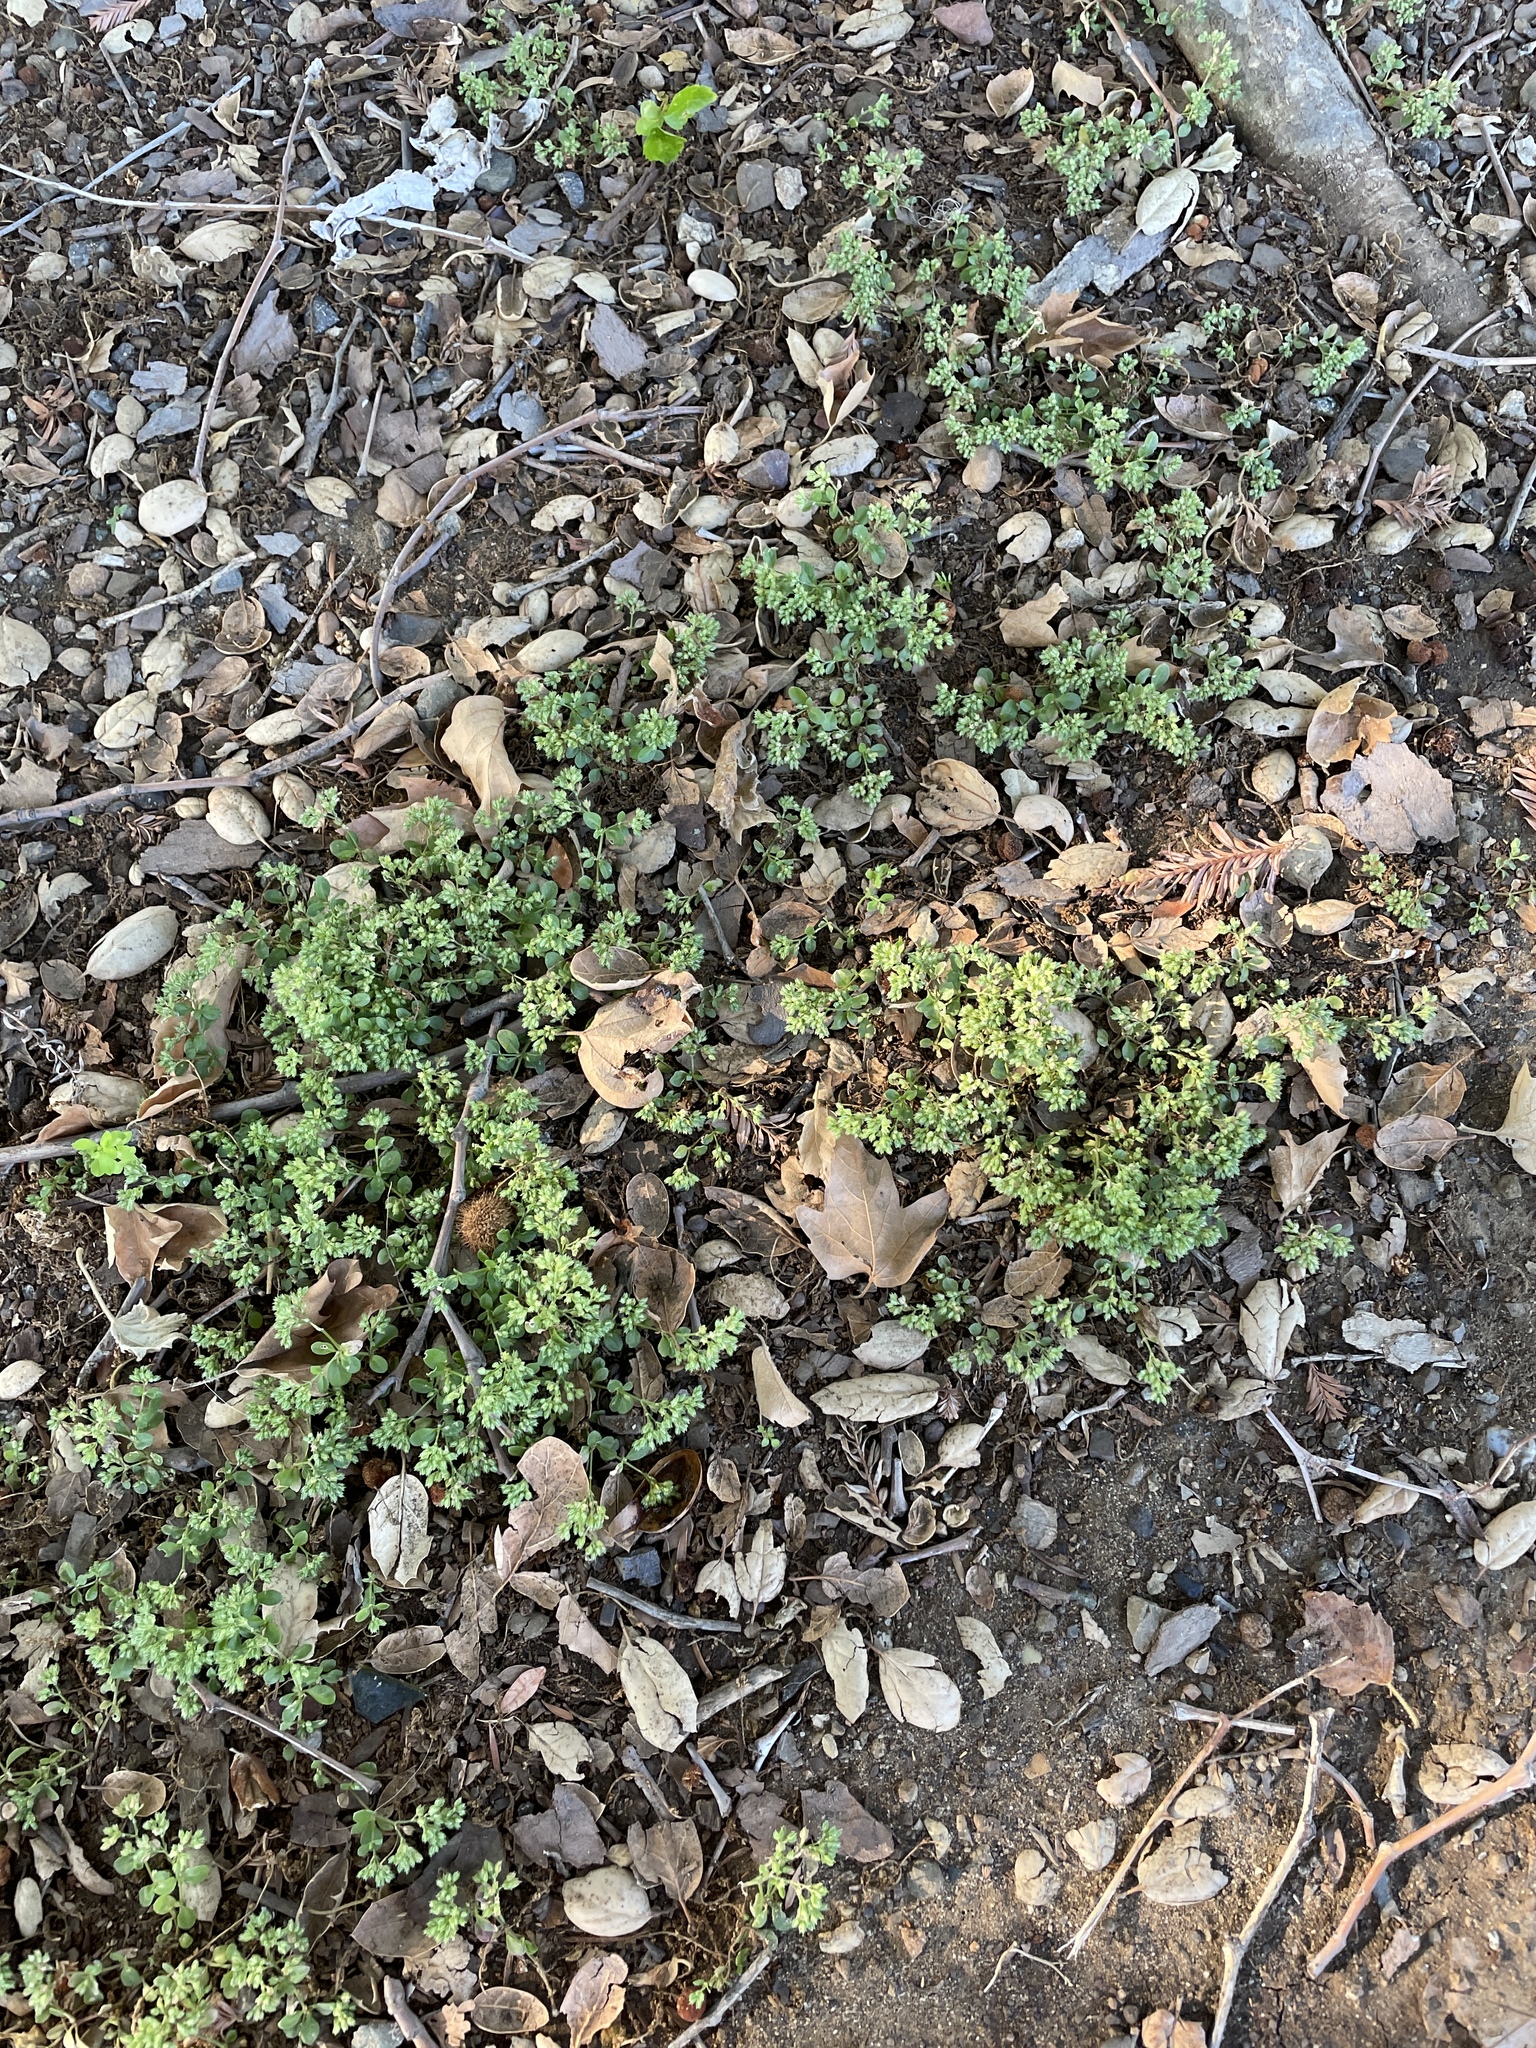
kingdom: Plantae
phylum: Tracheophyta
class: Magnoliopsida
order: Caryophyllales
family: Caryophyllaceae
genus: Polycarpon
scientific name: Polycarpon tetraphyllum
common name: Four-leaved all-seed
